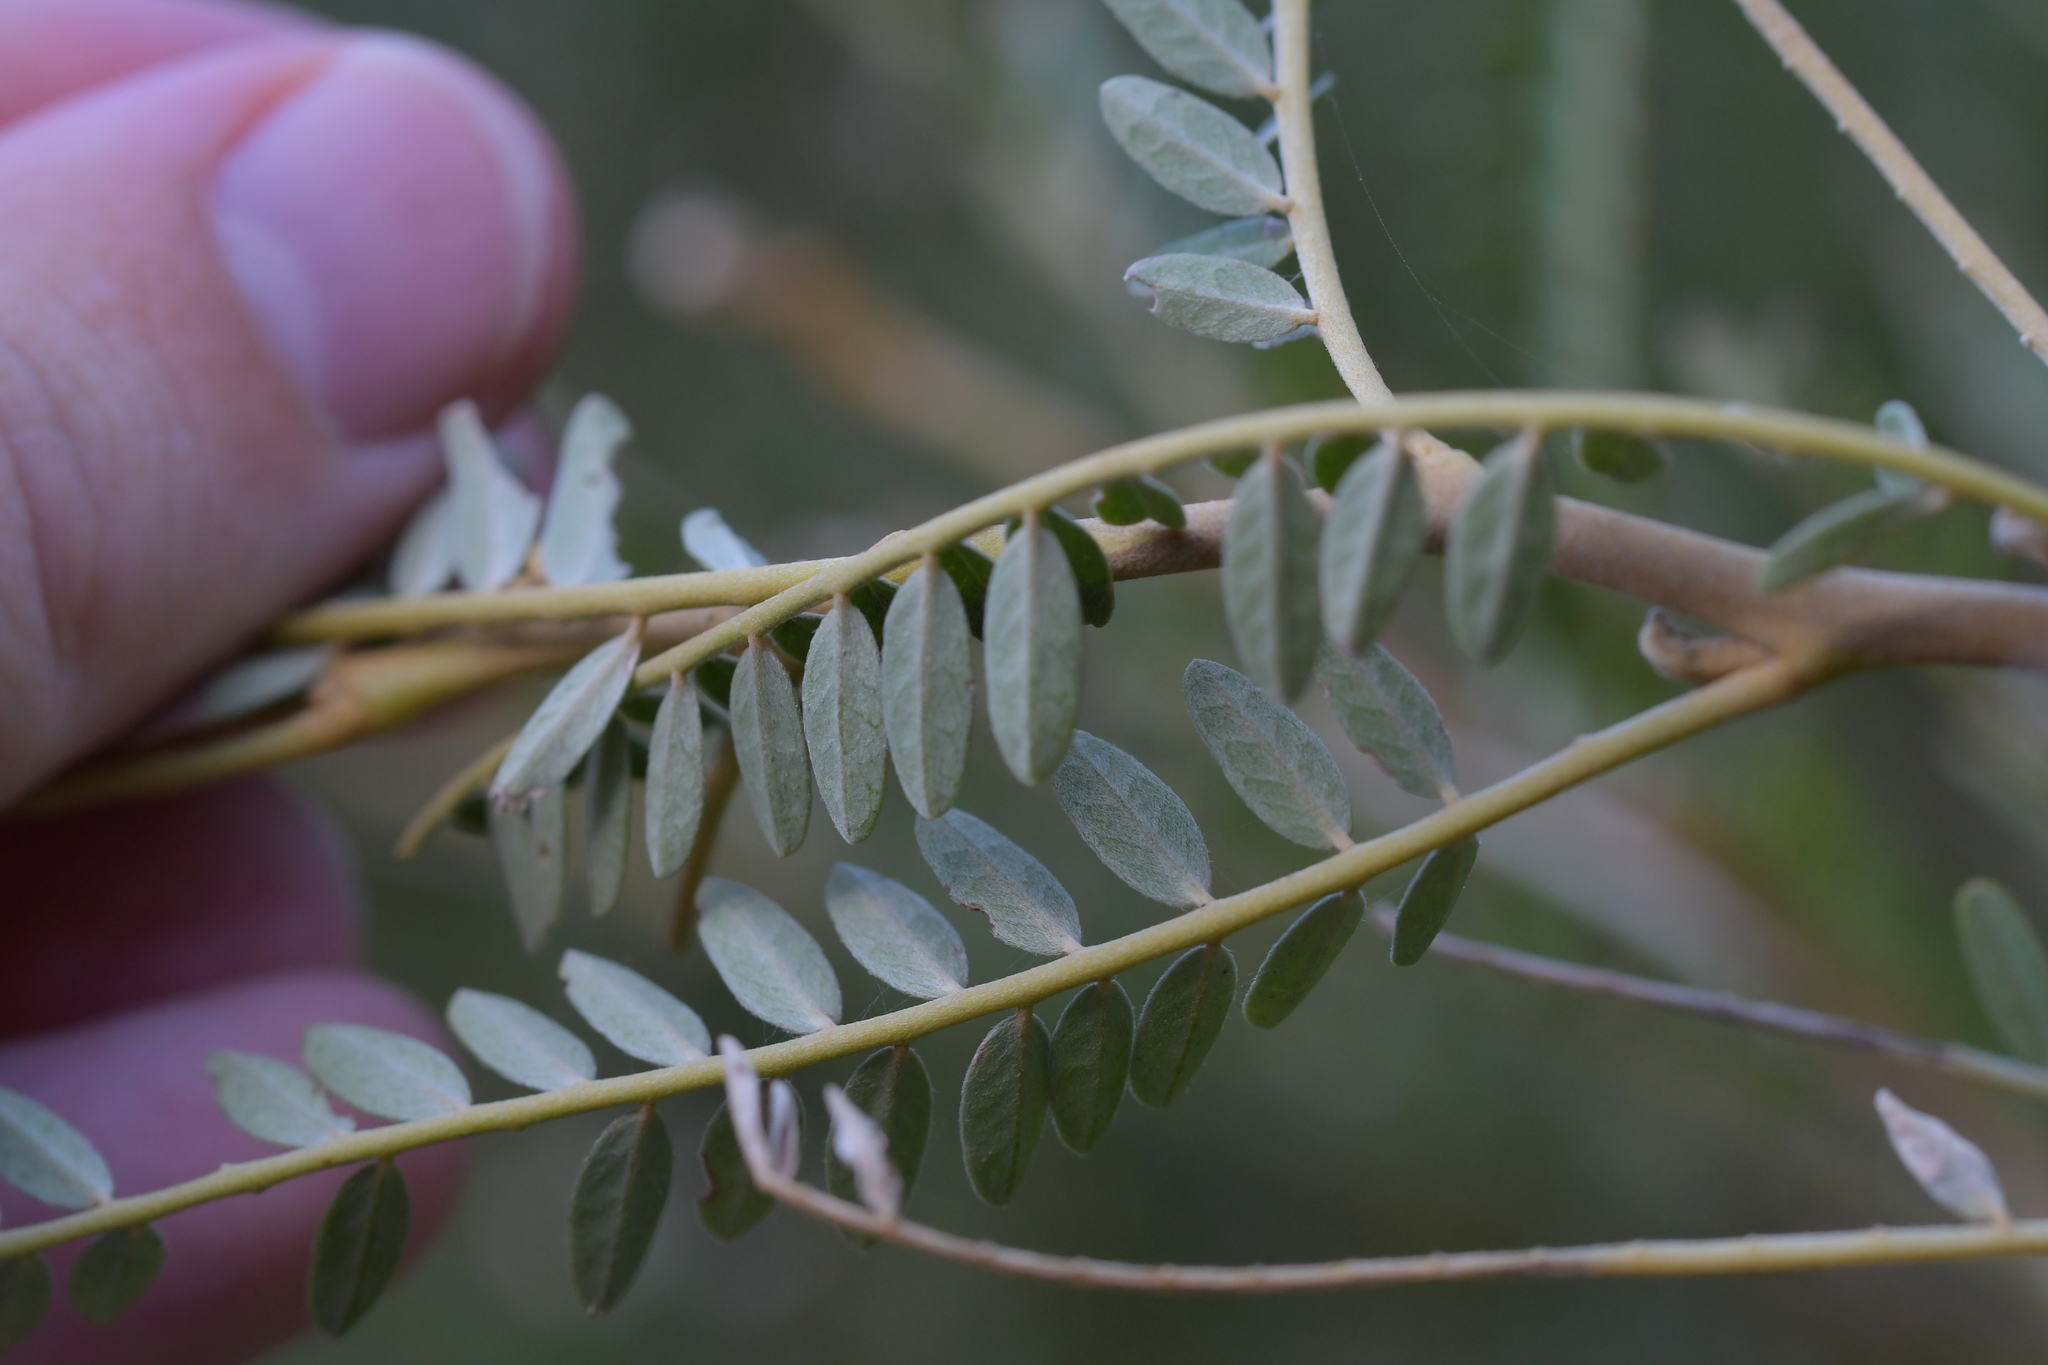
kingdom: Plantae
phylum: Tracheophyta
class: Magnoliopsida
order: Fabales
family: Fabaceae
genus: Sophora
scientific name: Sophora molloyi
